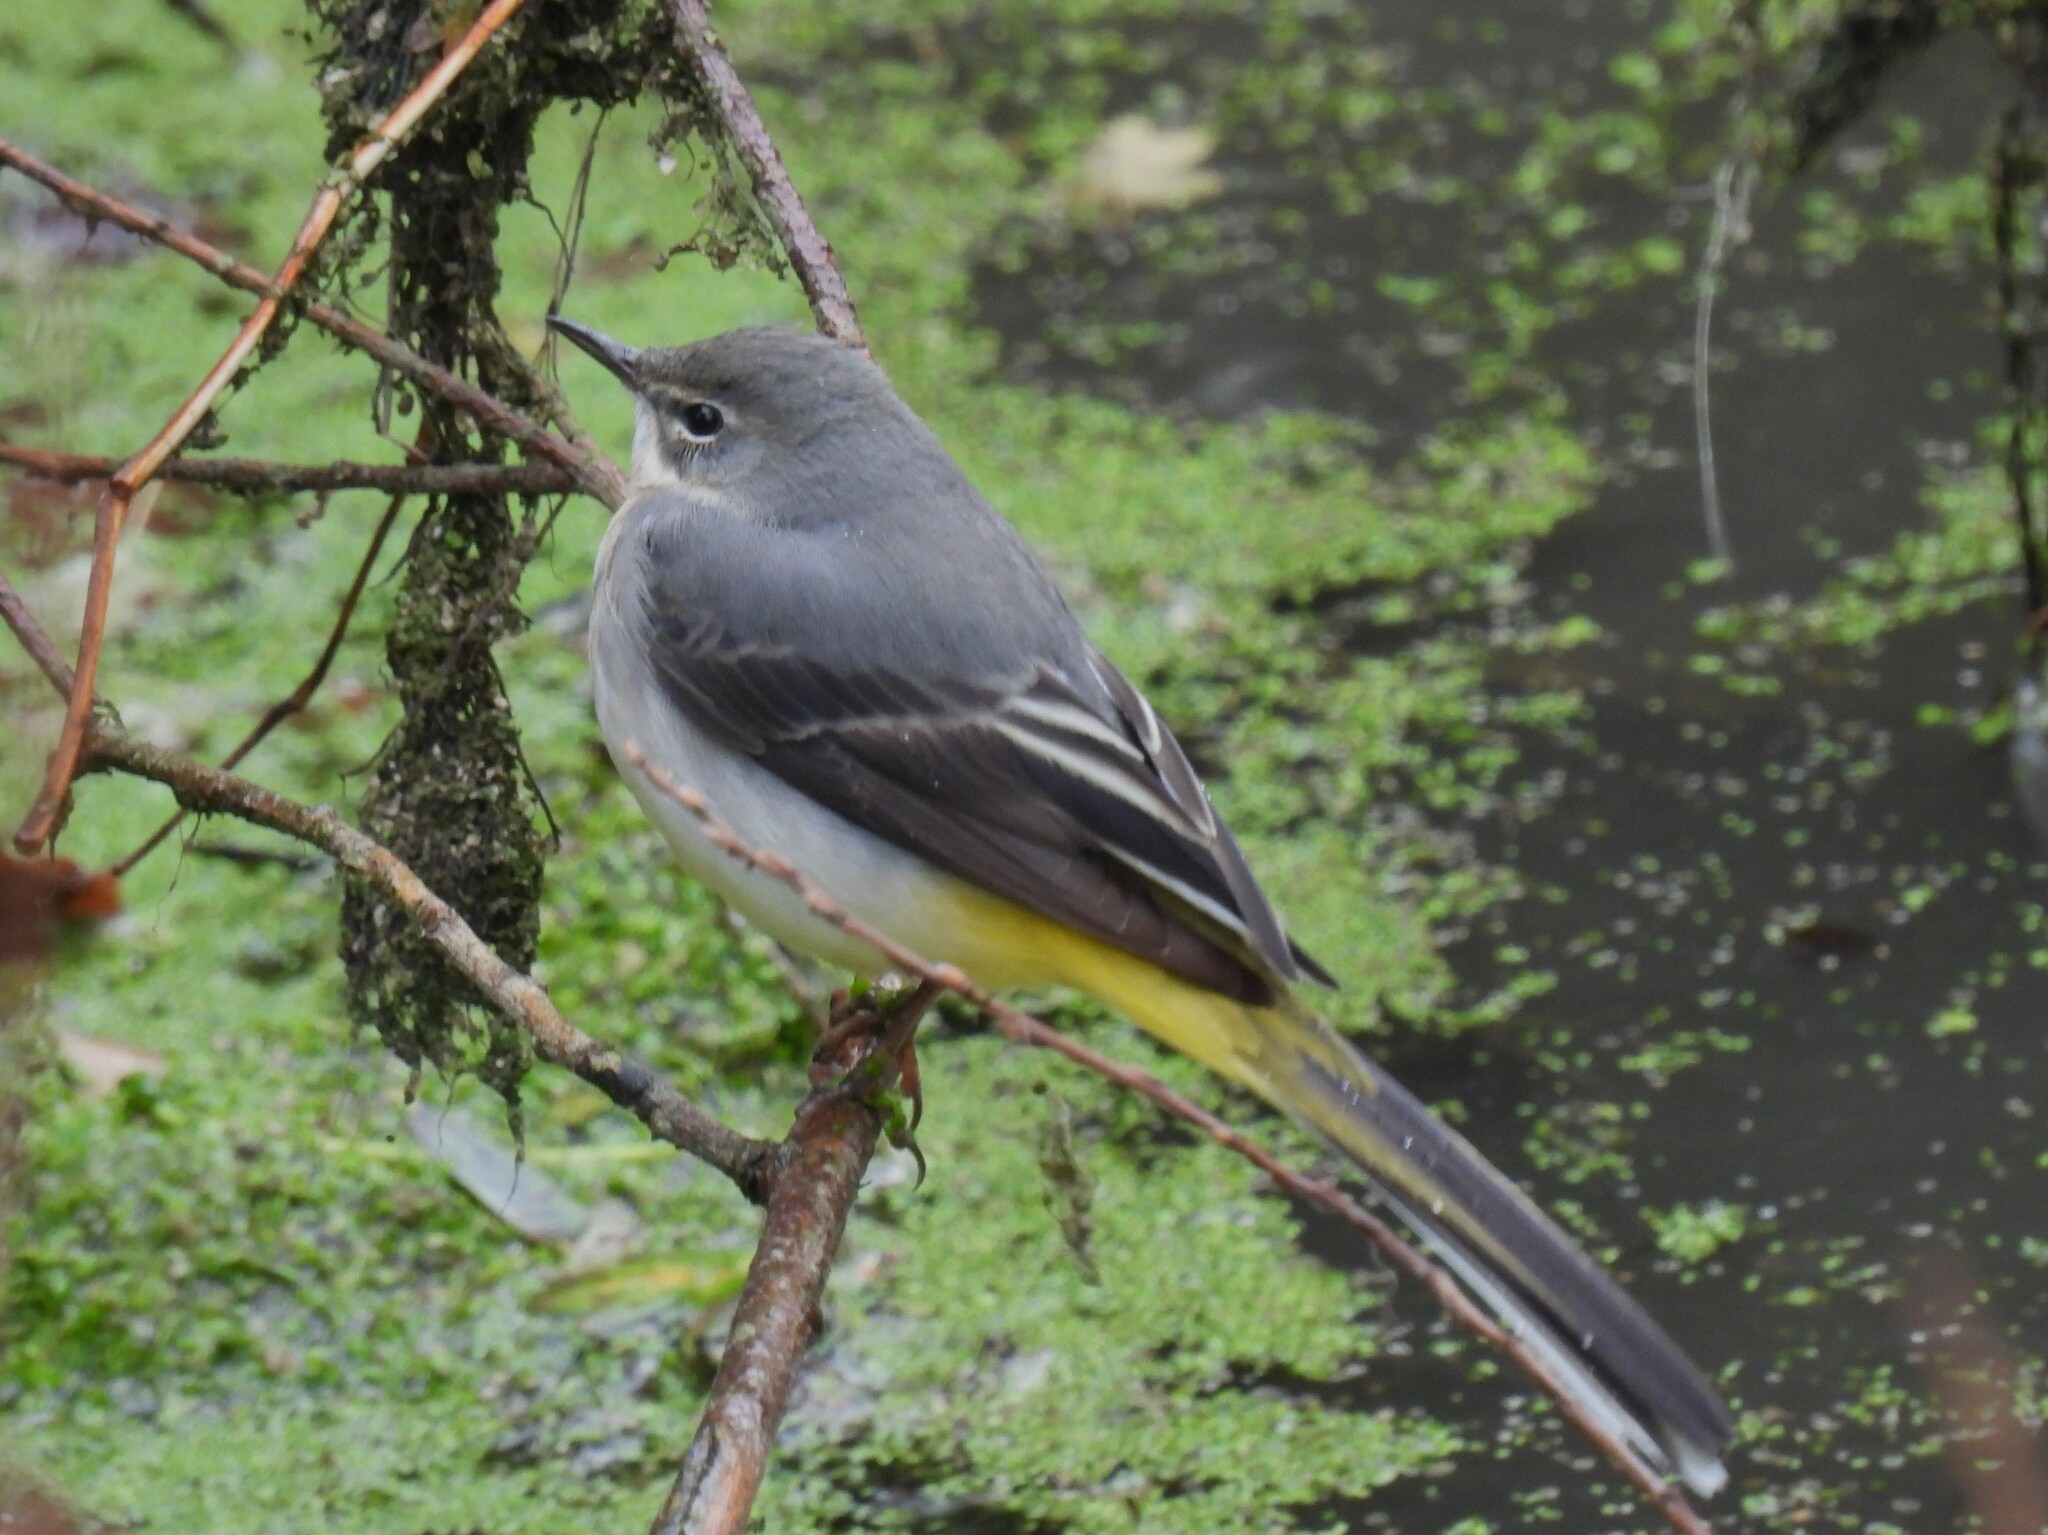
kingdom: Animalia
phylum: Chordata
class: Aves
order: Passeriformes
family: Motacillidae
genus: Motacilla
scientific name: Motacilla cinerea
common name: Grey wagtail
